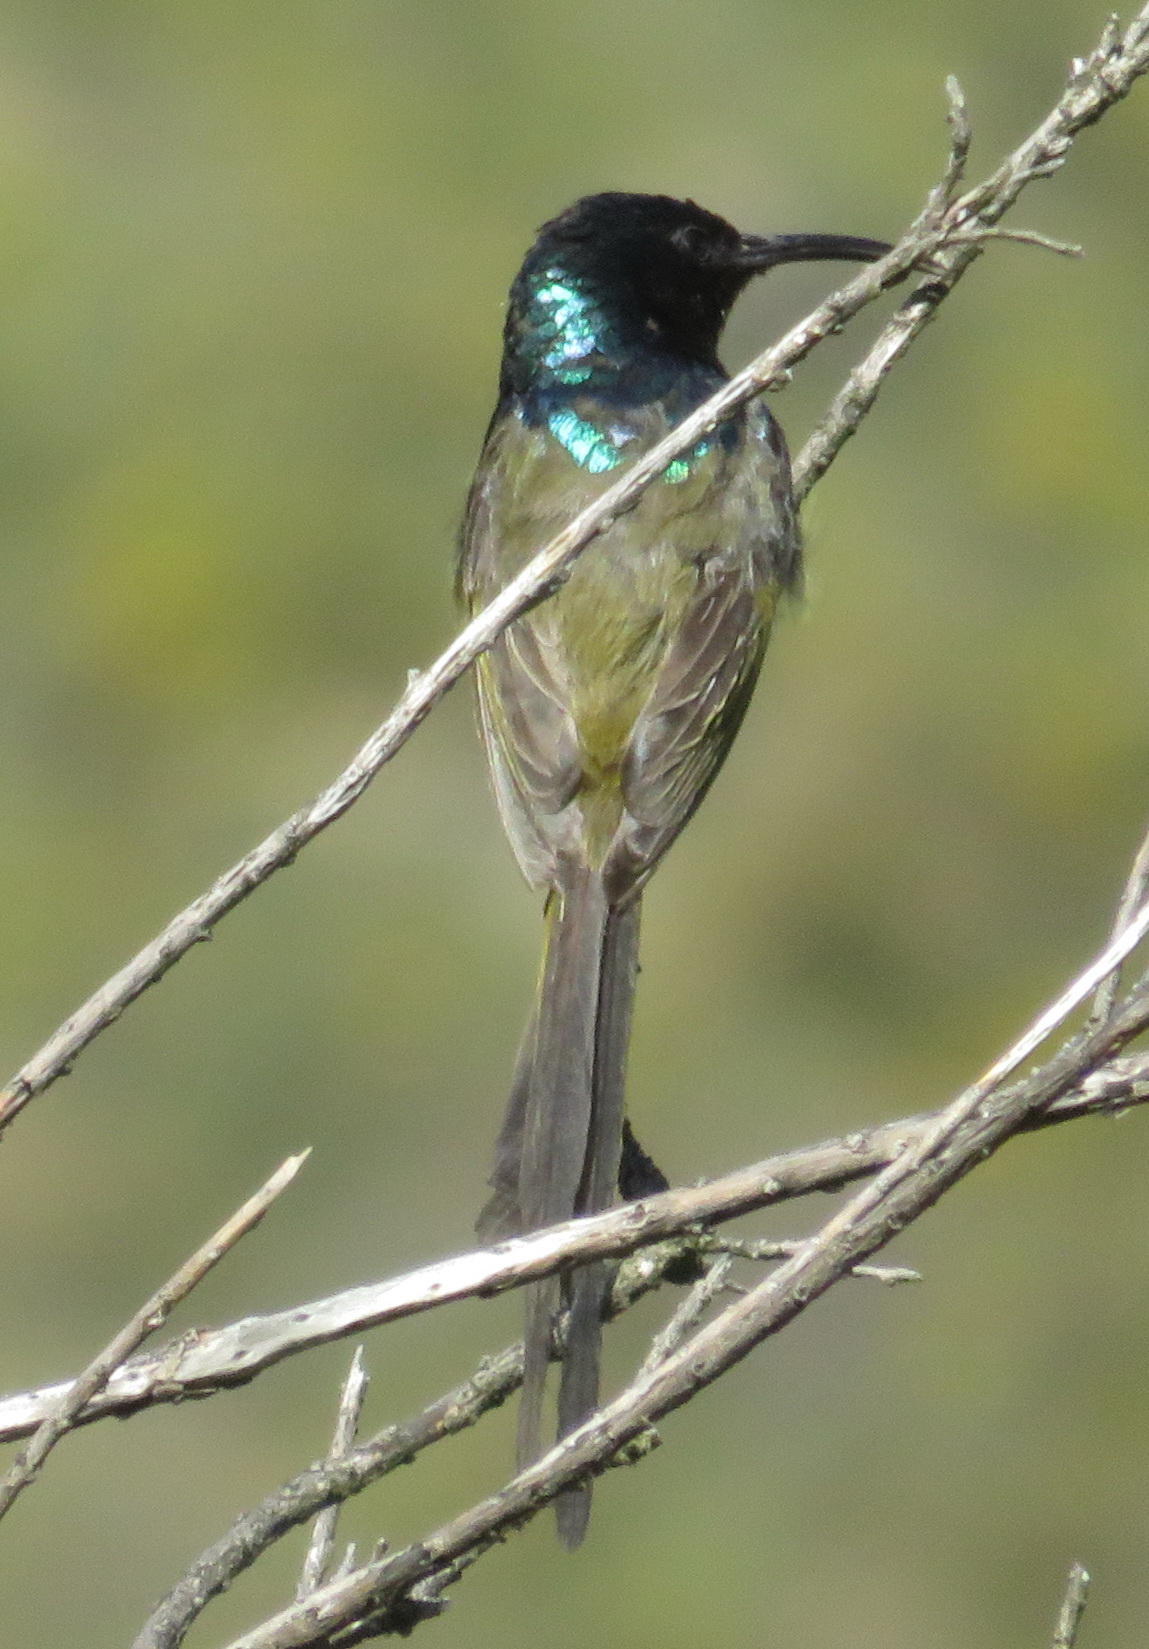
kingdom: Animalia
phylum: Chordata
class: Aves
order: Passeriformes
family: Nectariniidae
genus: Anthobaphes
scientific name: Anthobaphes violacea
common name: Orange-breasted sunbird
